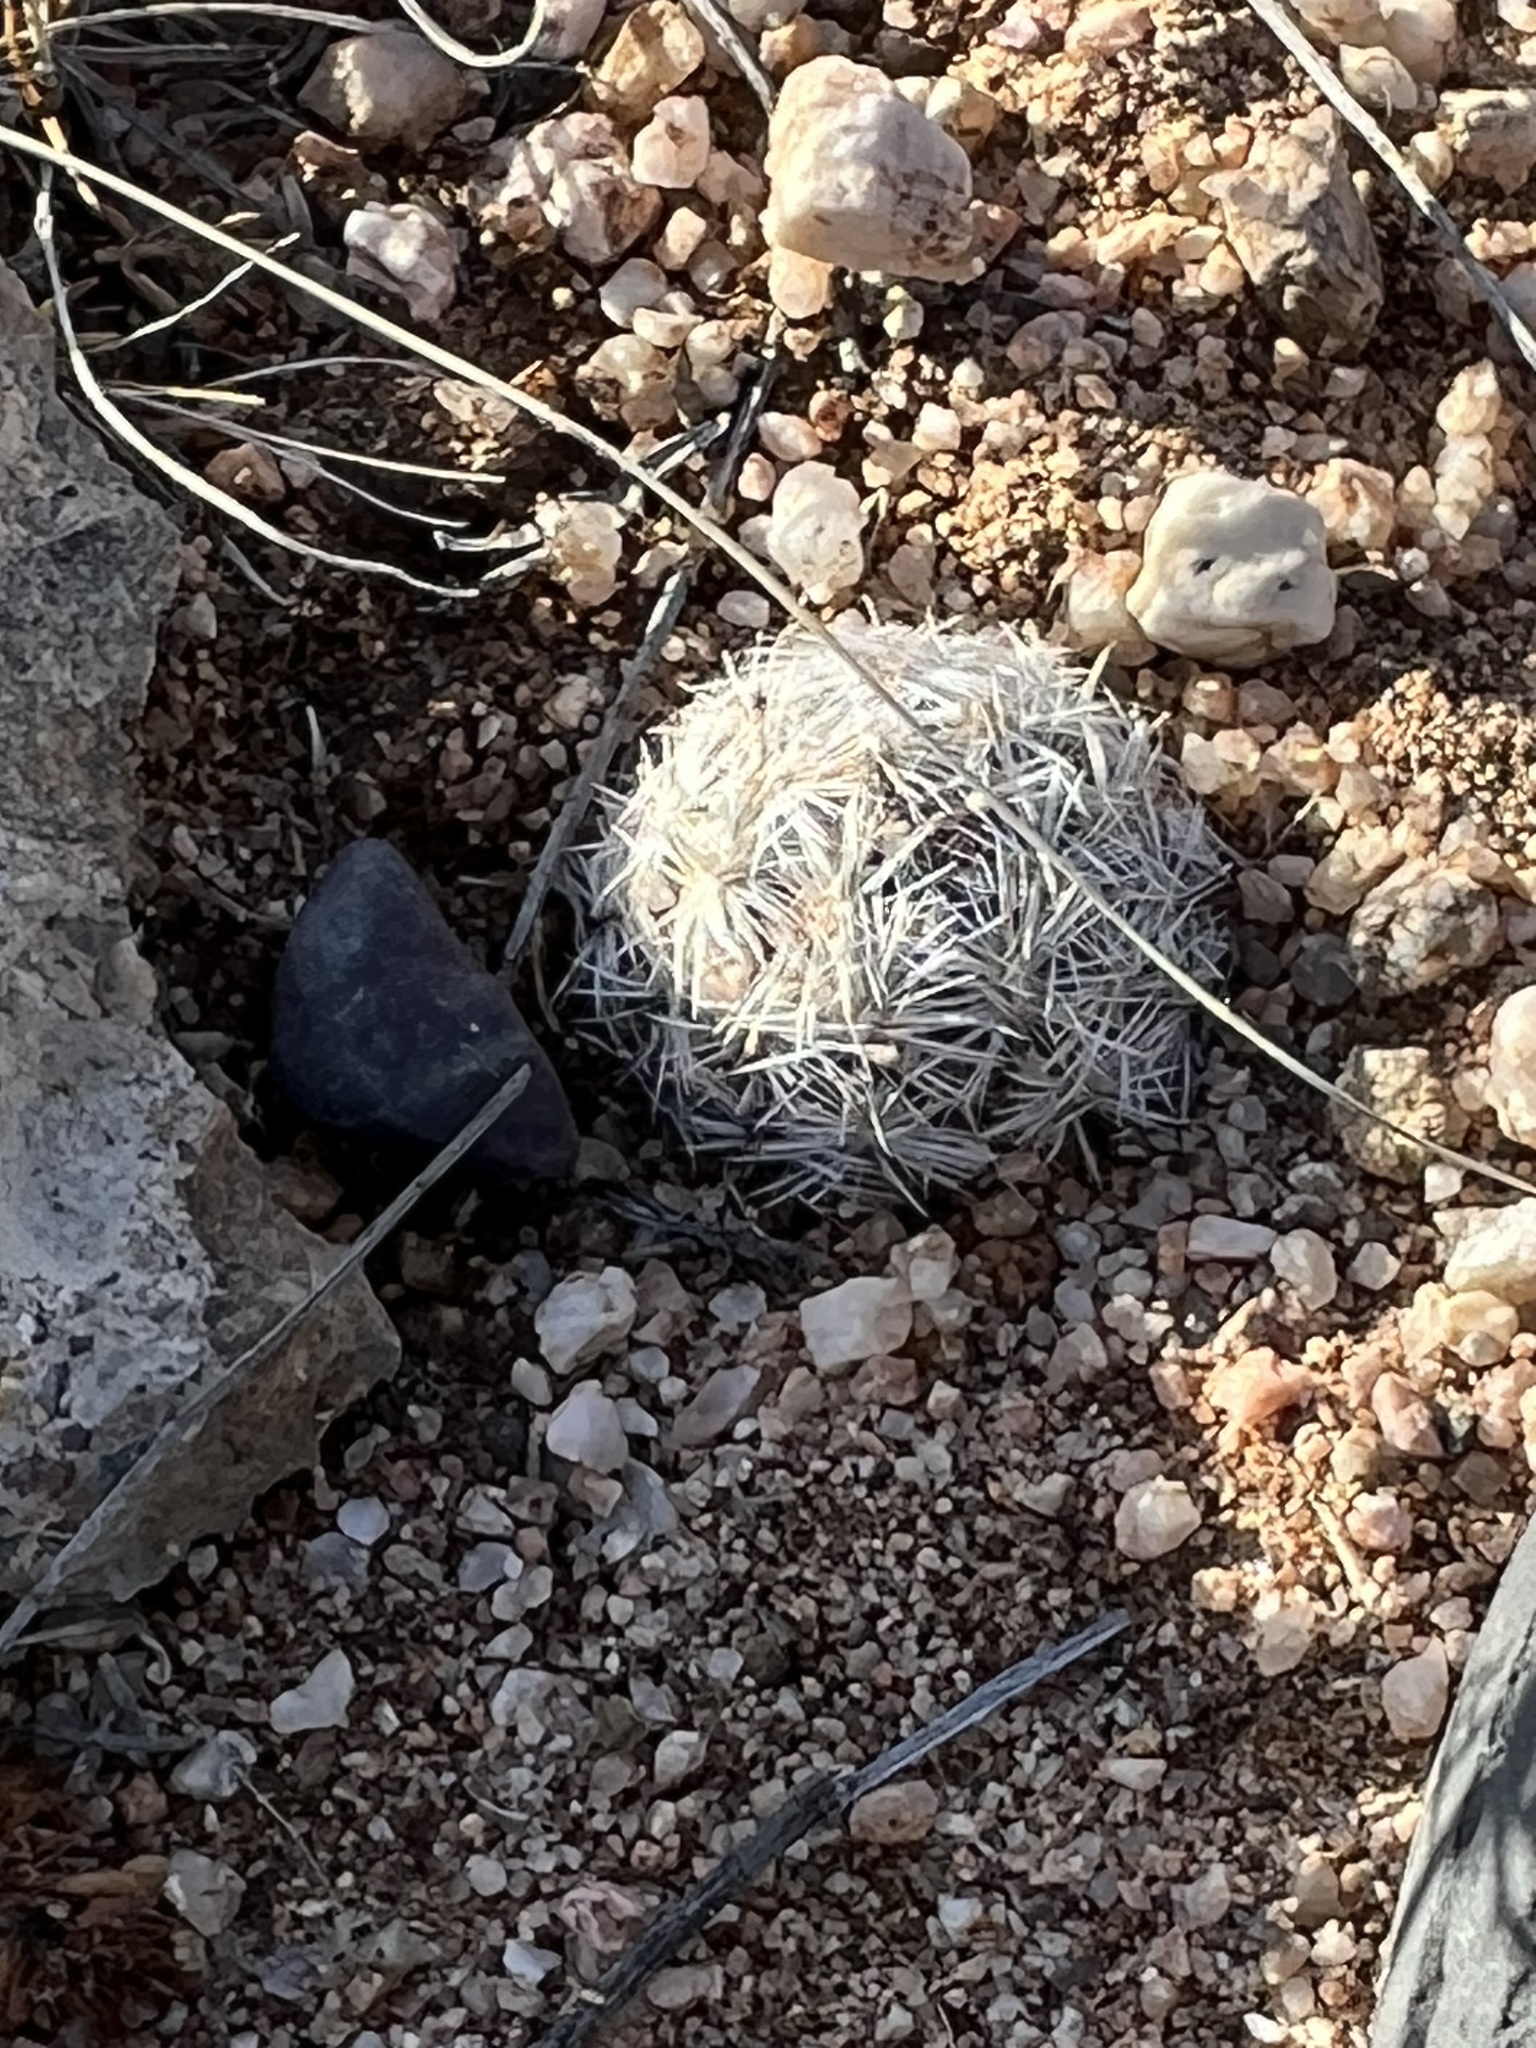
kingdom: Plantae
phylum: Tracheophyta
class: Magnoliopsida
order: Caryophyllales
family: Cactaceae
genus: Pelecyphora
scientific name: Pelecyphora vivipara
